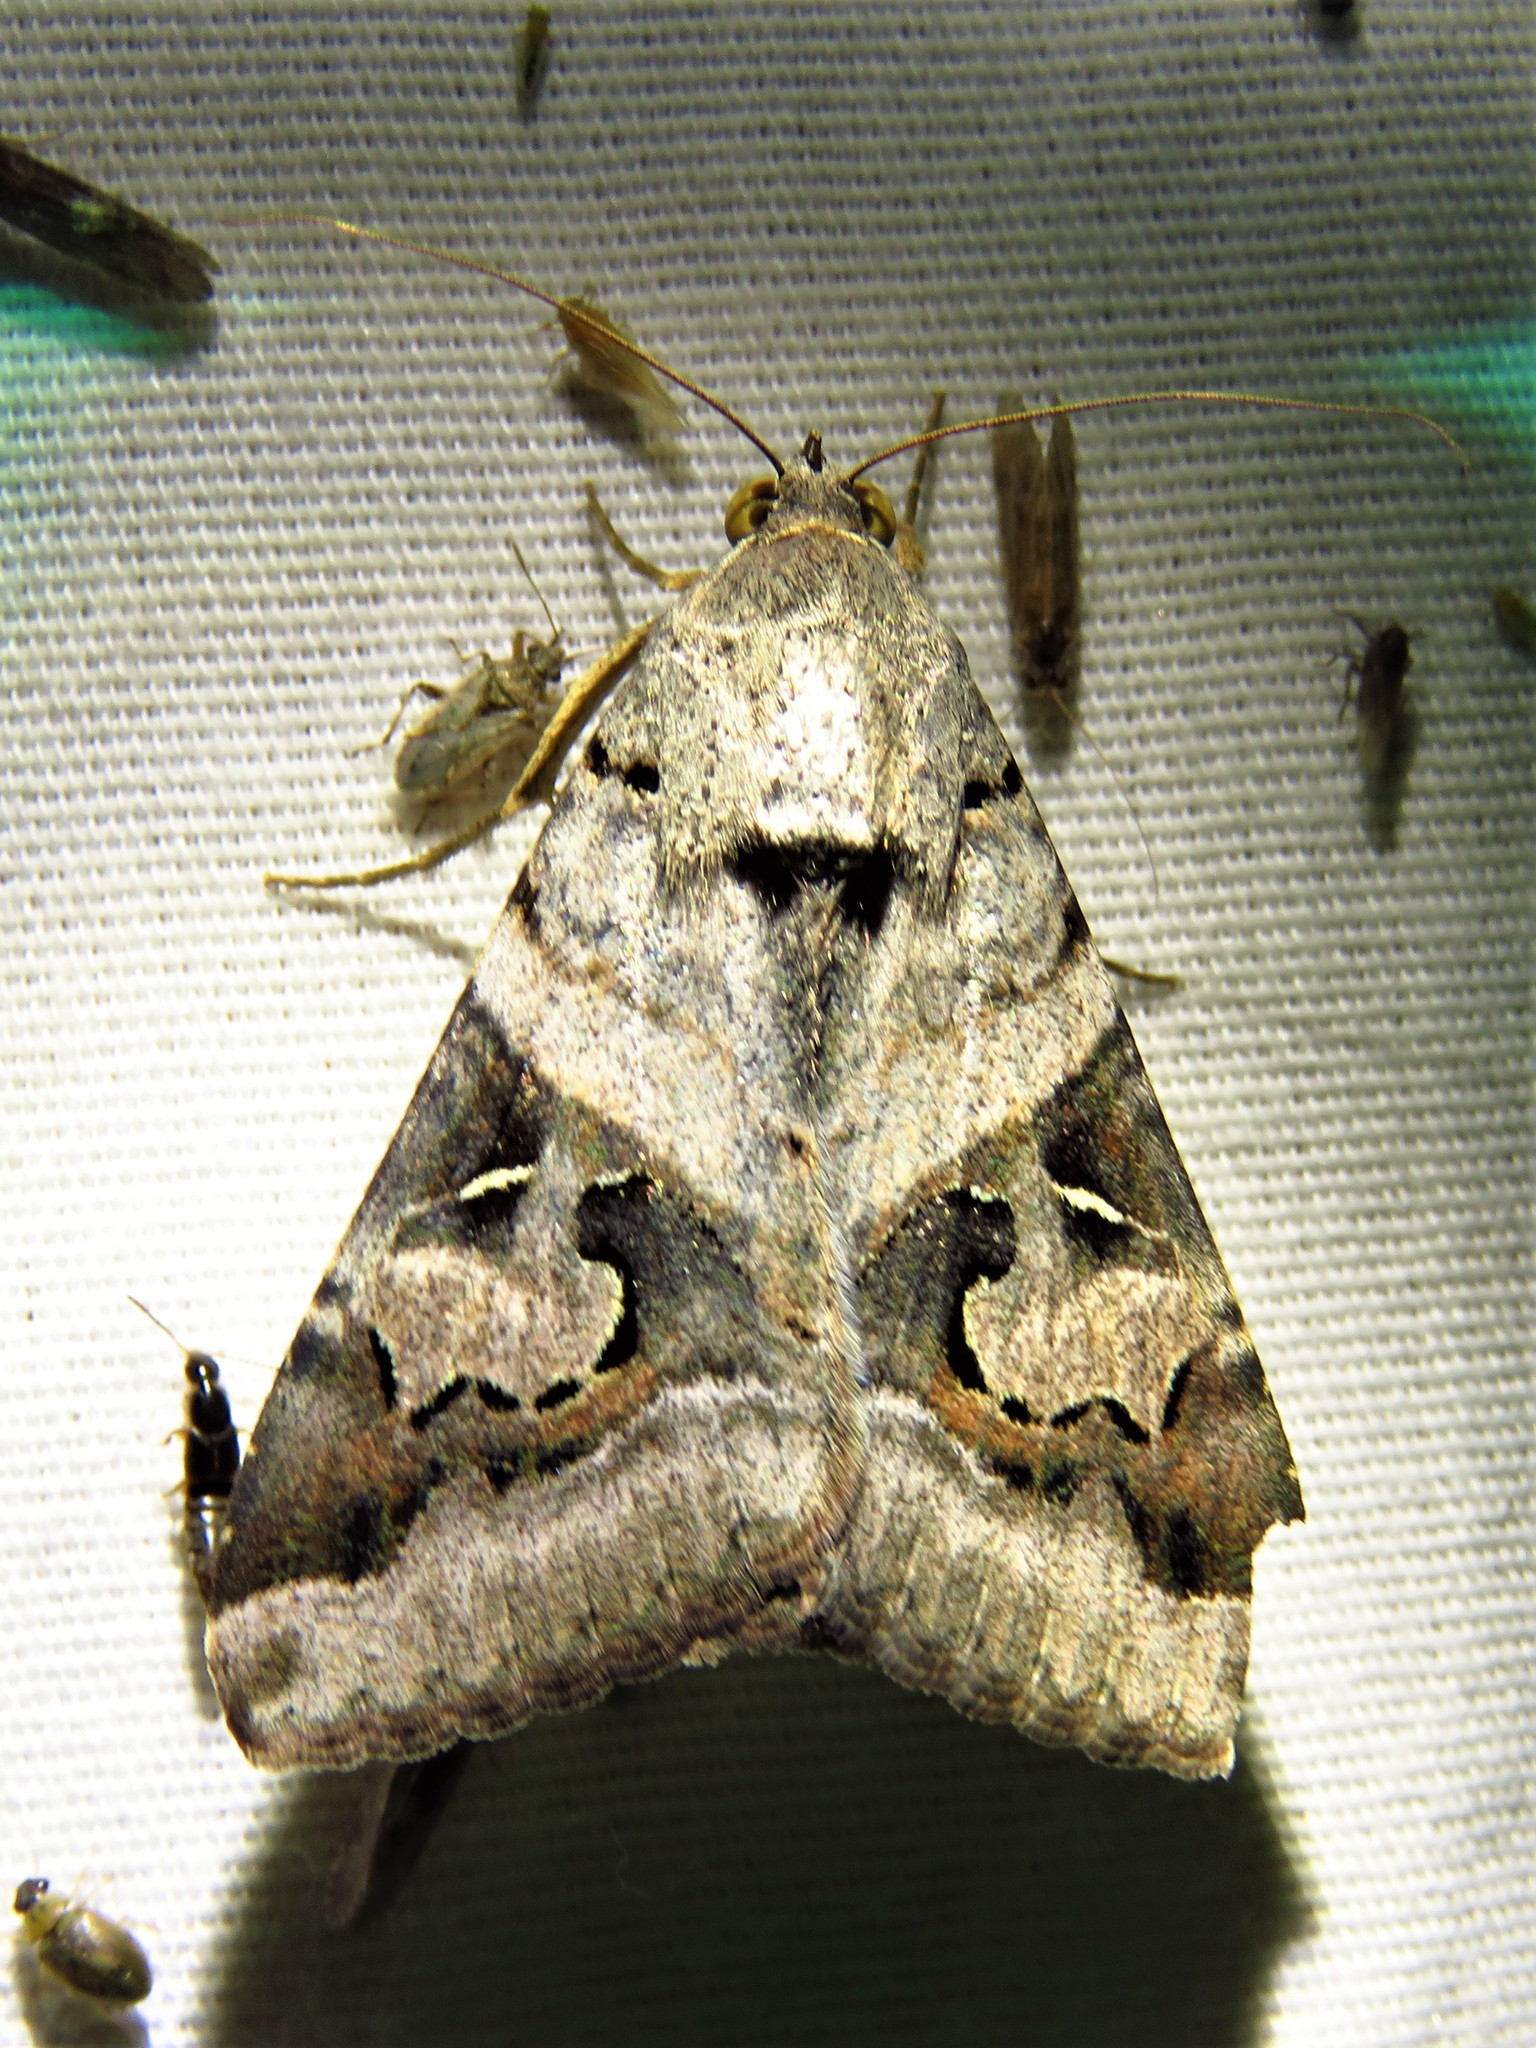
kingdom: Animalia
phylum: Arthropoda
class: Insecta
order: Lepidoptera
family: Erebidae
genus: Melipotis
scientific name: Melipotis indomita
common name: Moth
